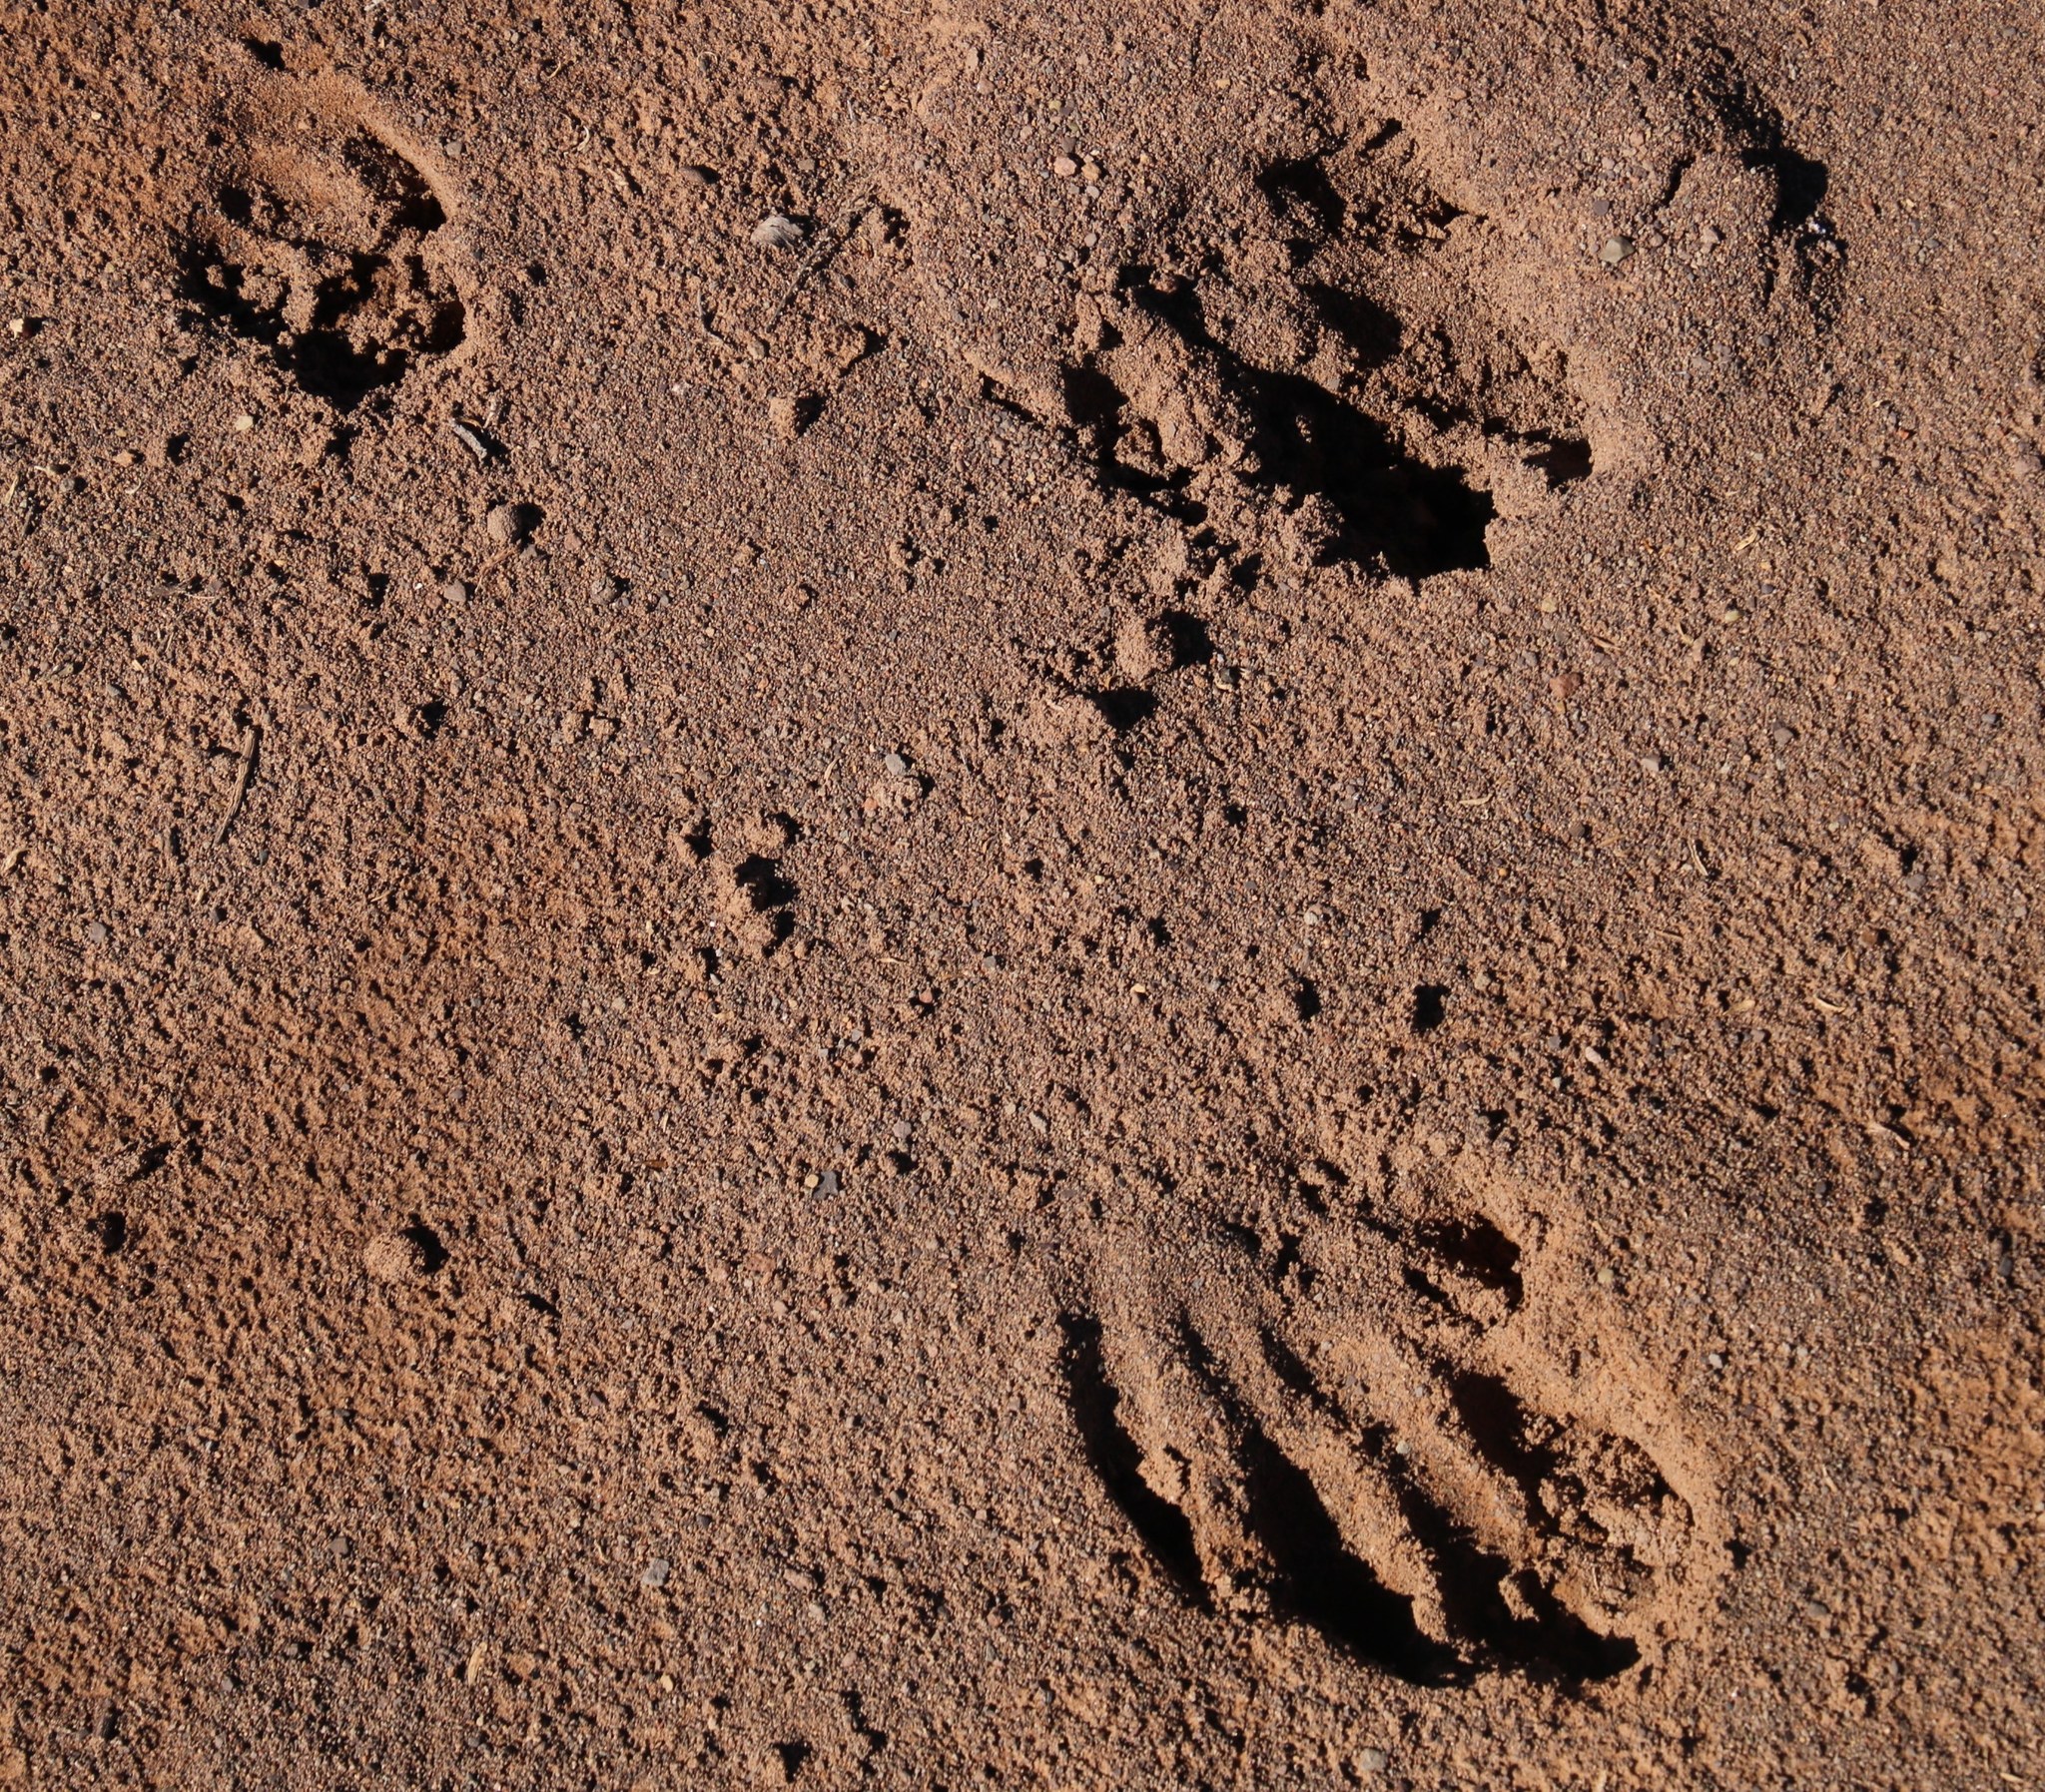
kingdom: Animalia
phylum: Chordata
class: Mammalia
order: Tubulidentata
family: Orycteropodidae
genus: Orycteropus
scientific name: Orycteropus afer
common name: Aardvark
